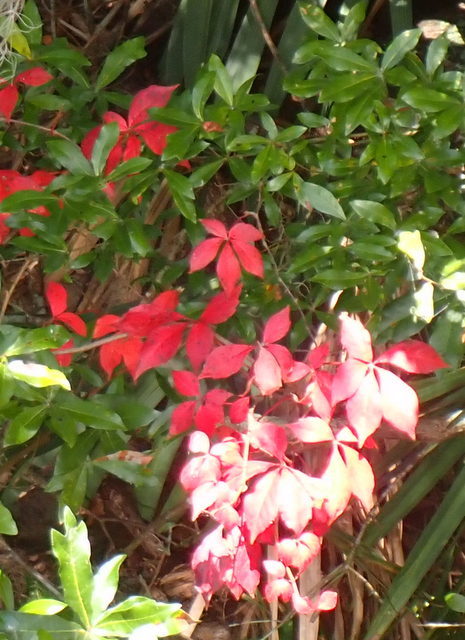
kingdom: Plantae
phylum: Tracheophyta
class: Magnoliopsida
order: Vitales
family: Vitaceae
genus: Parthenocissus
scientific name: Parthenocissus quinquefolia
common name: Virginia-creeper
